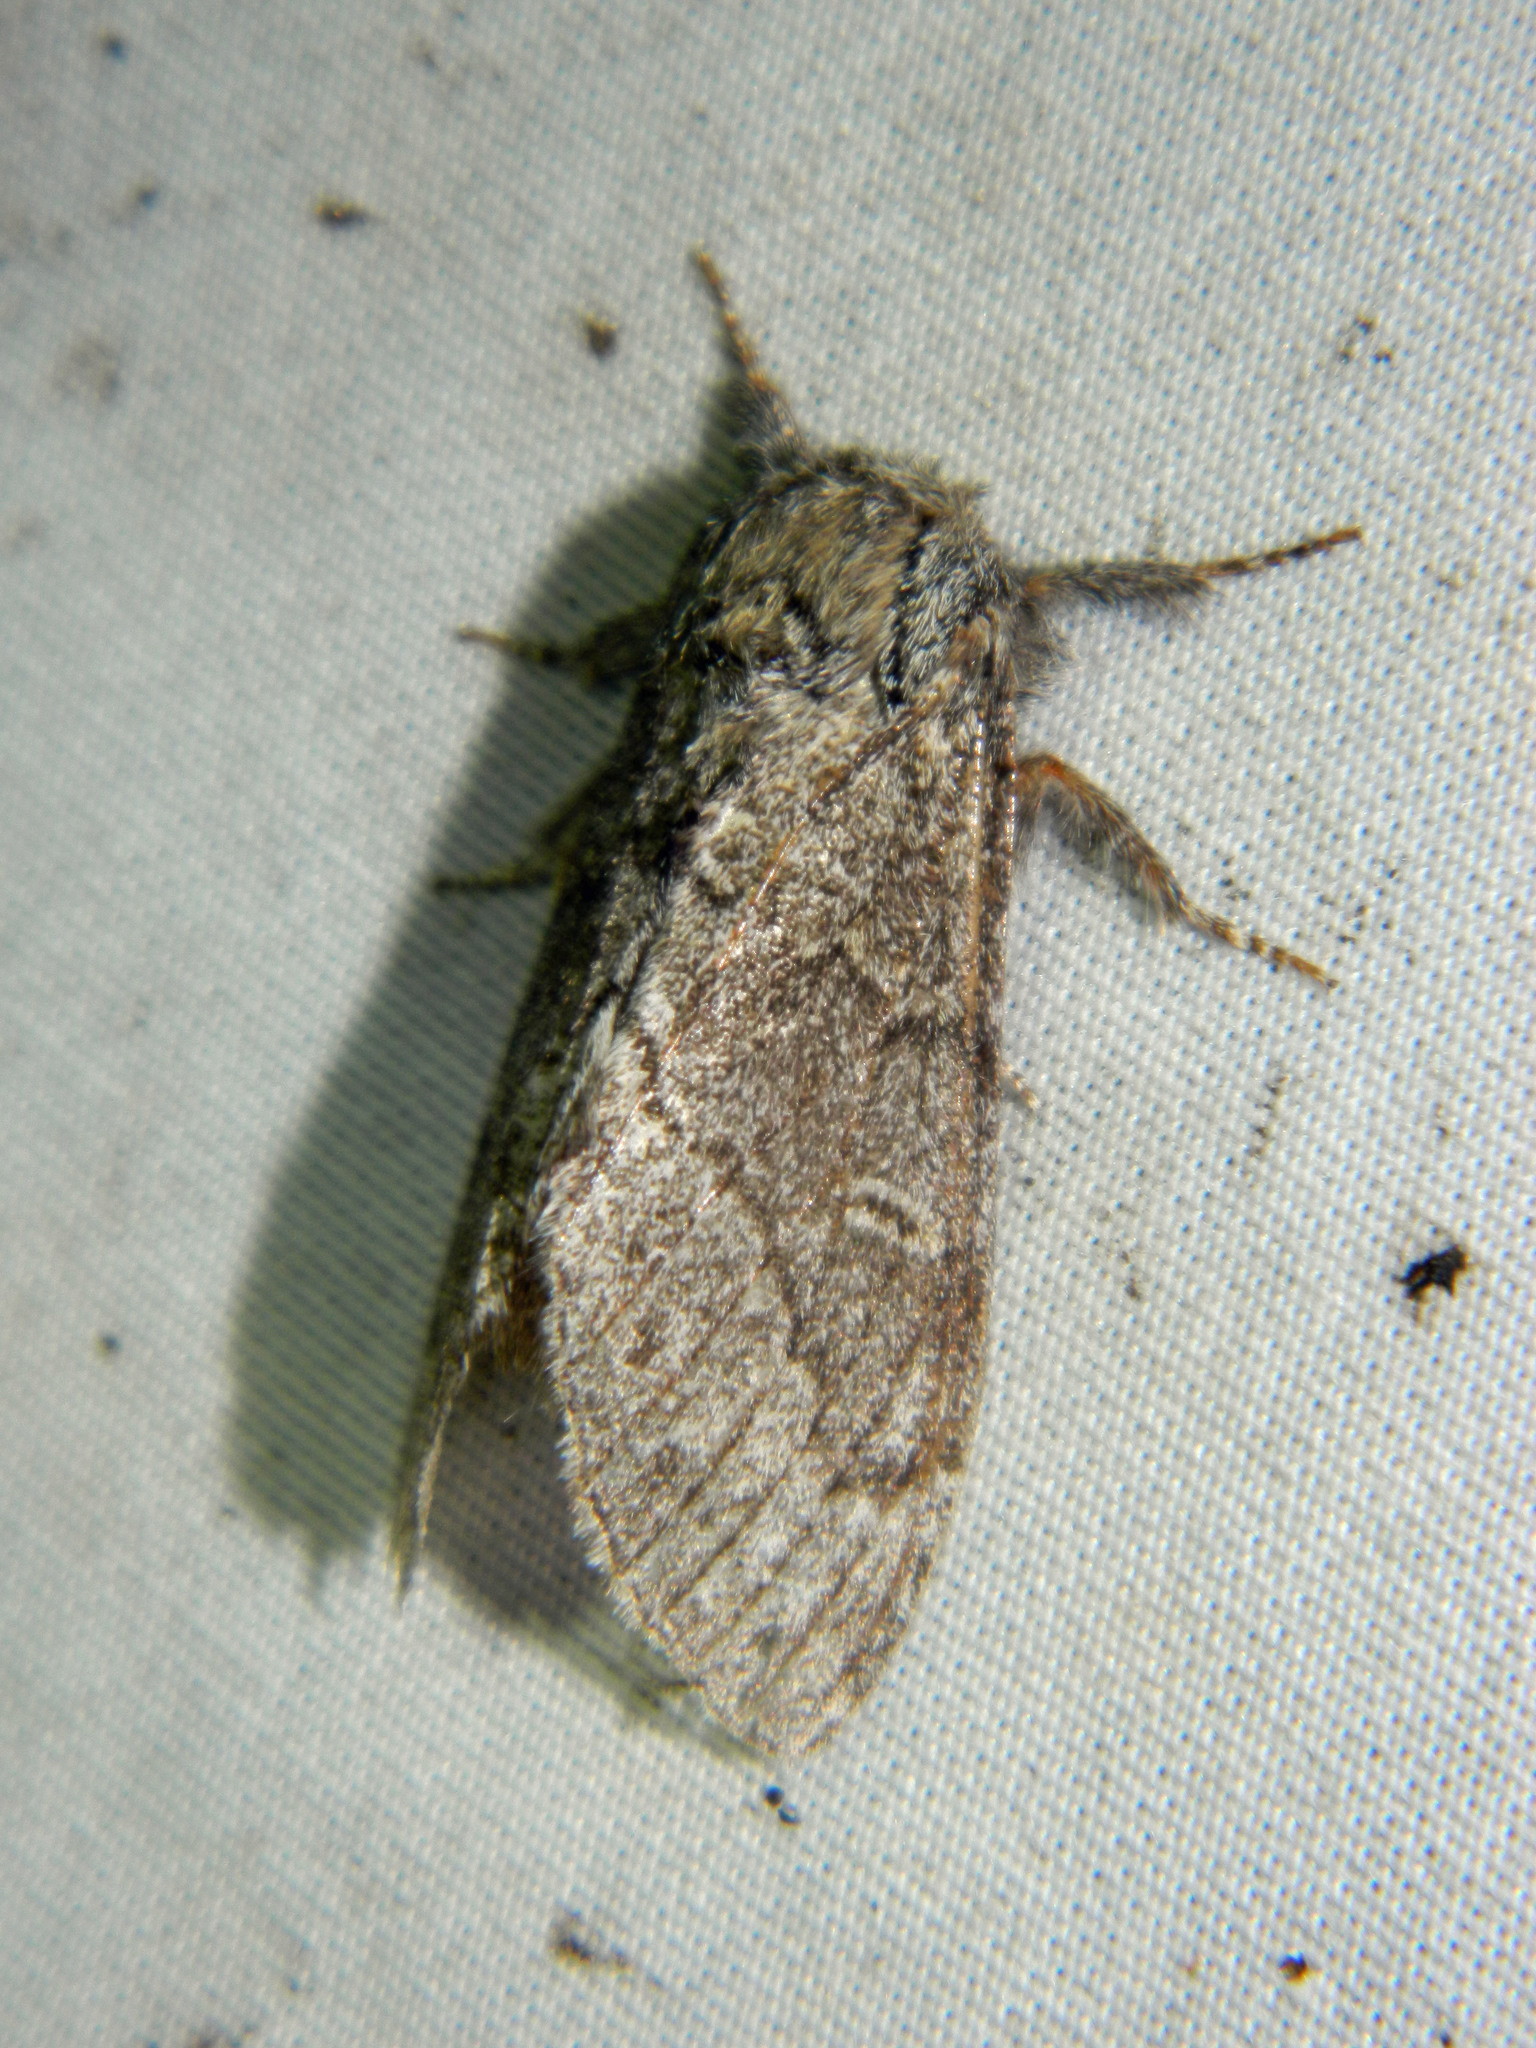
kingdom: Animalia
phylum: Arthropoda
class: Insecta
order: Lepidoptera
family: Notodontidae
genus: Notodonta
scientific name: Notodonta torva
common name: Large dark prominent
